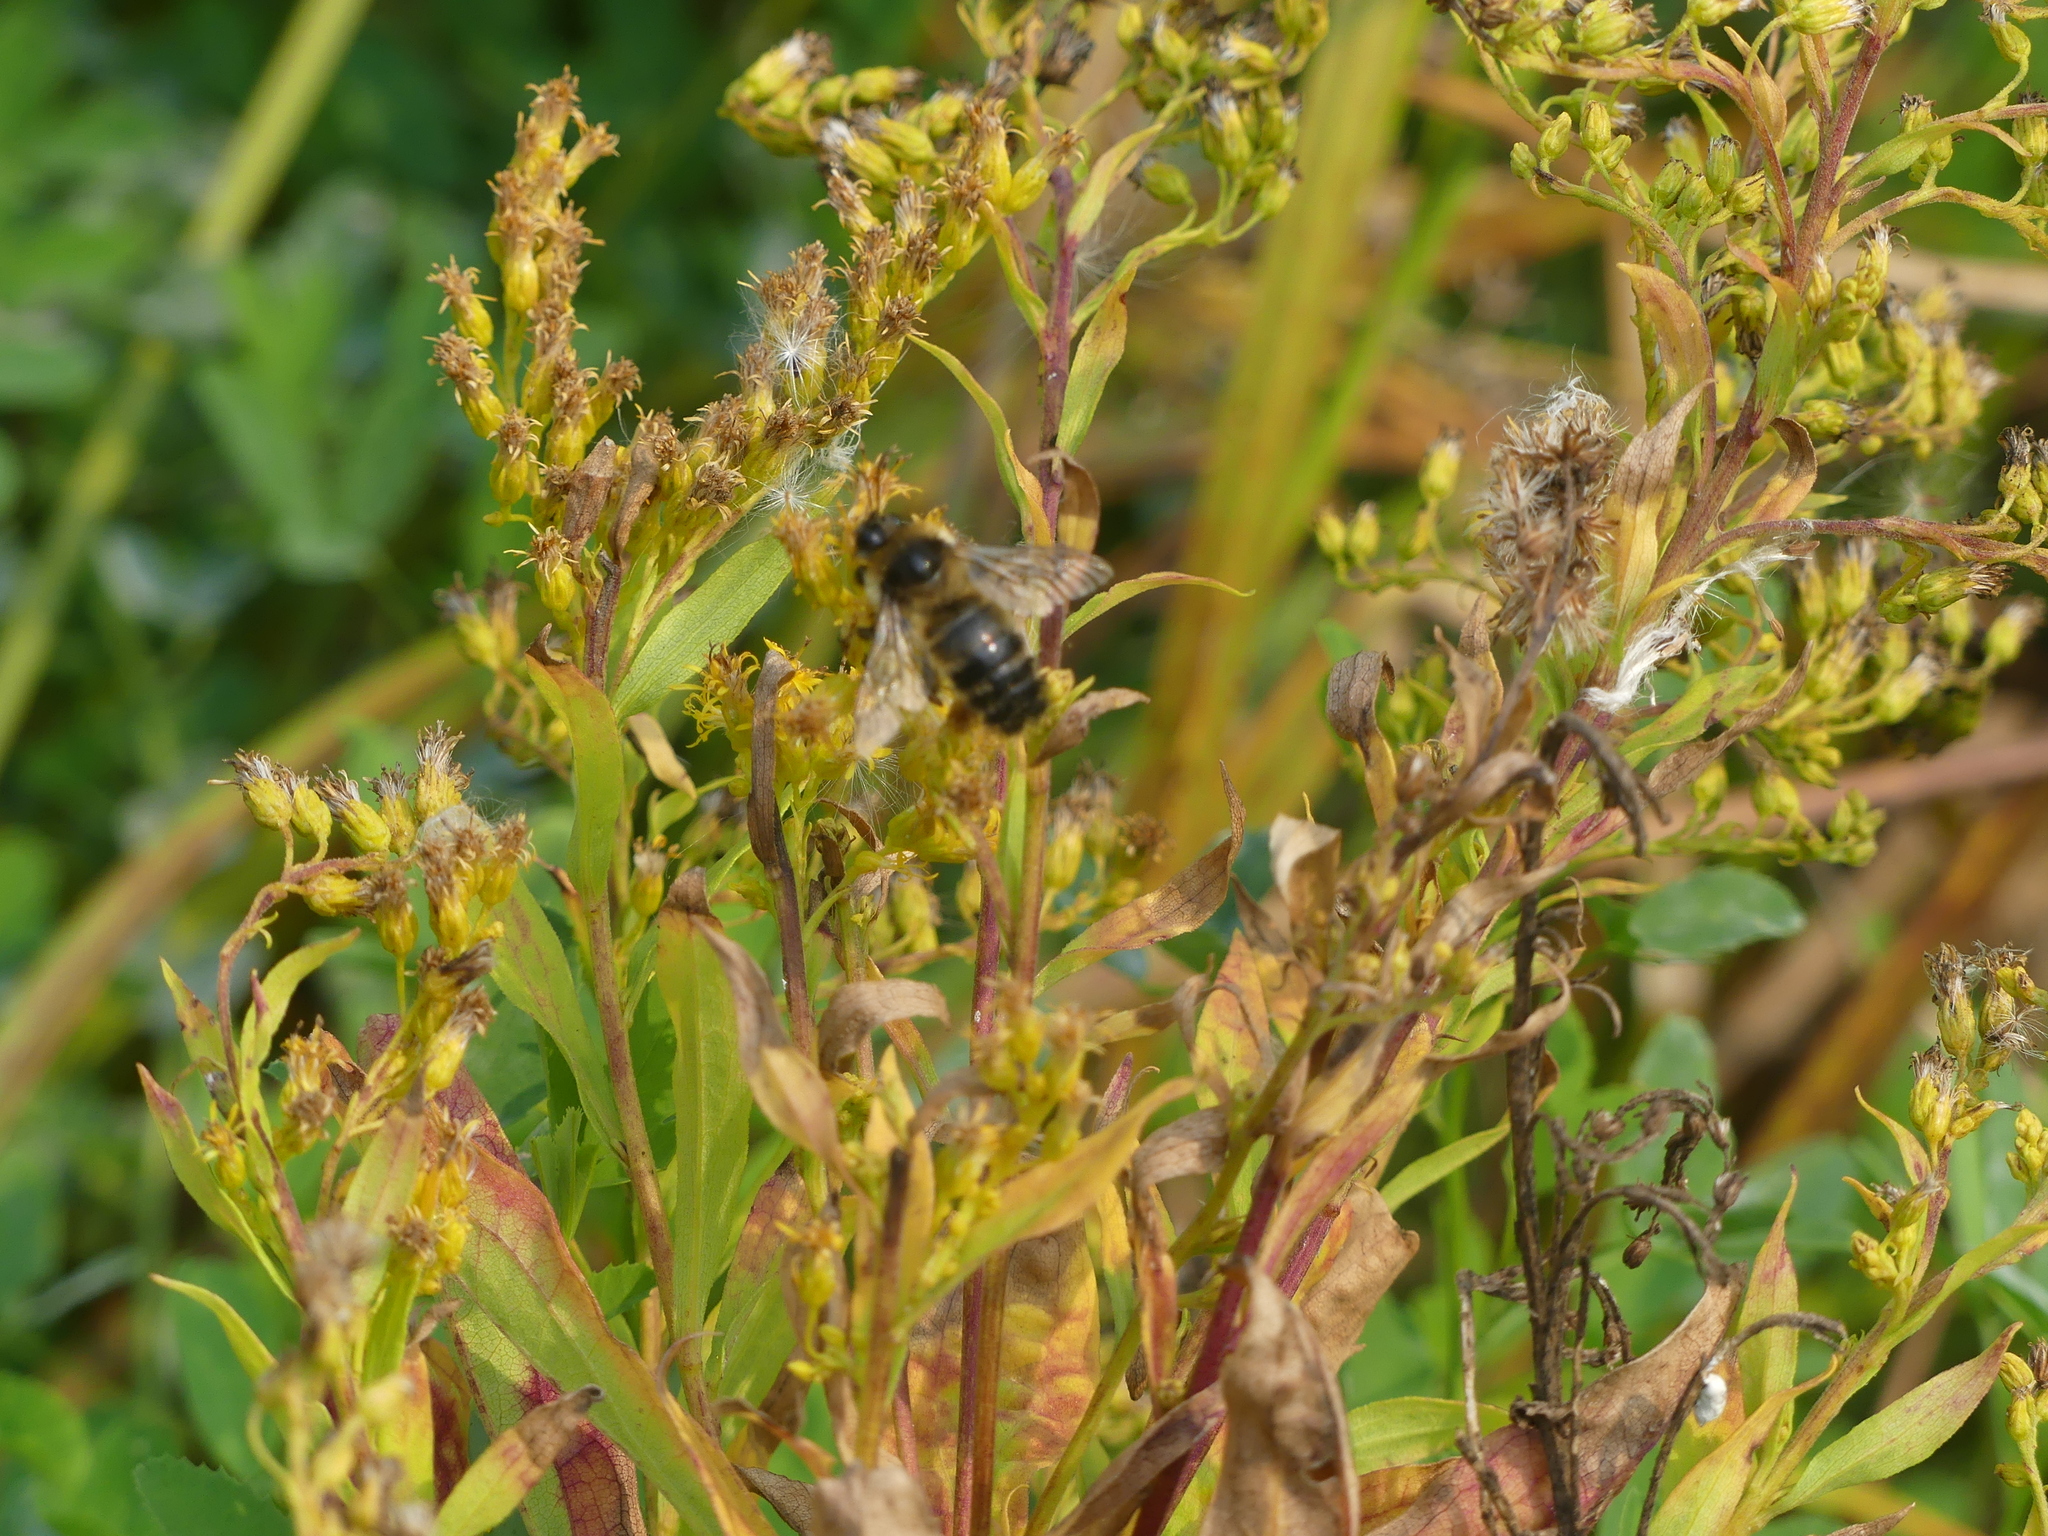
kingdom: Animalia
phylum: Arthropoda
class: Insecta
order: Hymenoptera
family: Apidae
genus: Bombus
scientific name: Bombus rufocinctus
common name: Red-belted bumble bee
